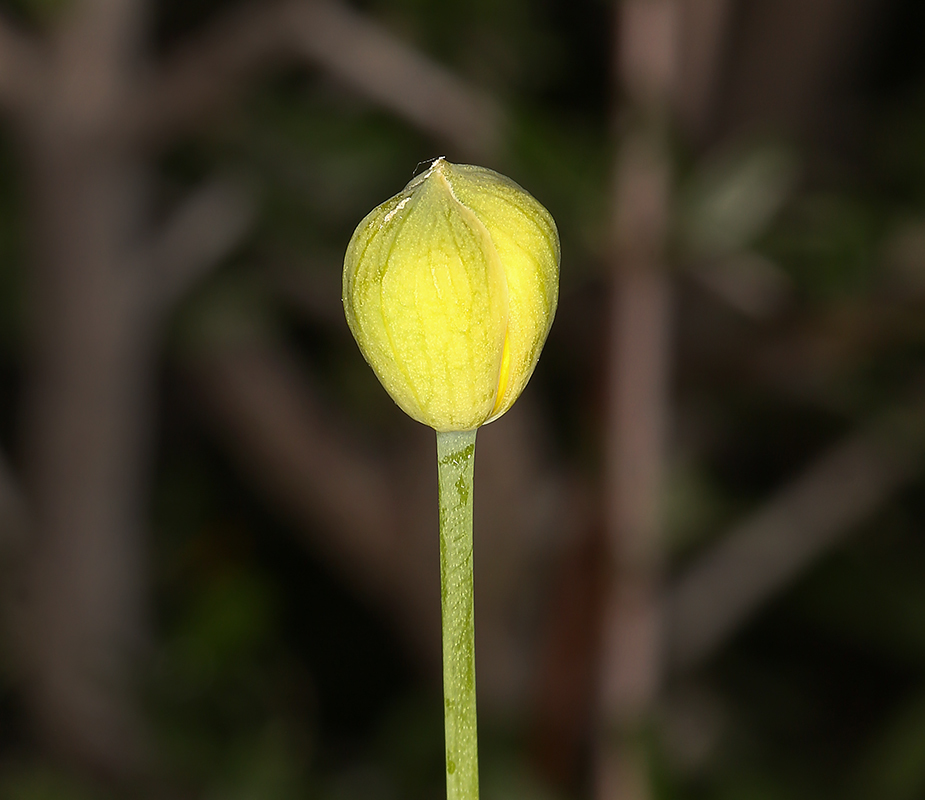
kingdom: Plantae
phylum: Tracheophyta
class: Magnoliopsida
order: Ranunculales
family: Papaveraceae
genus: Dendromecon
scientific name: Dendromecon rigida
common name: Tree poppy
